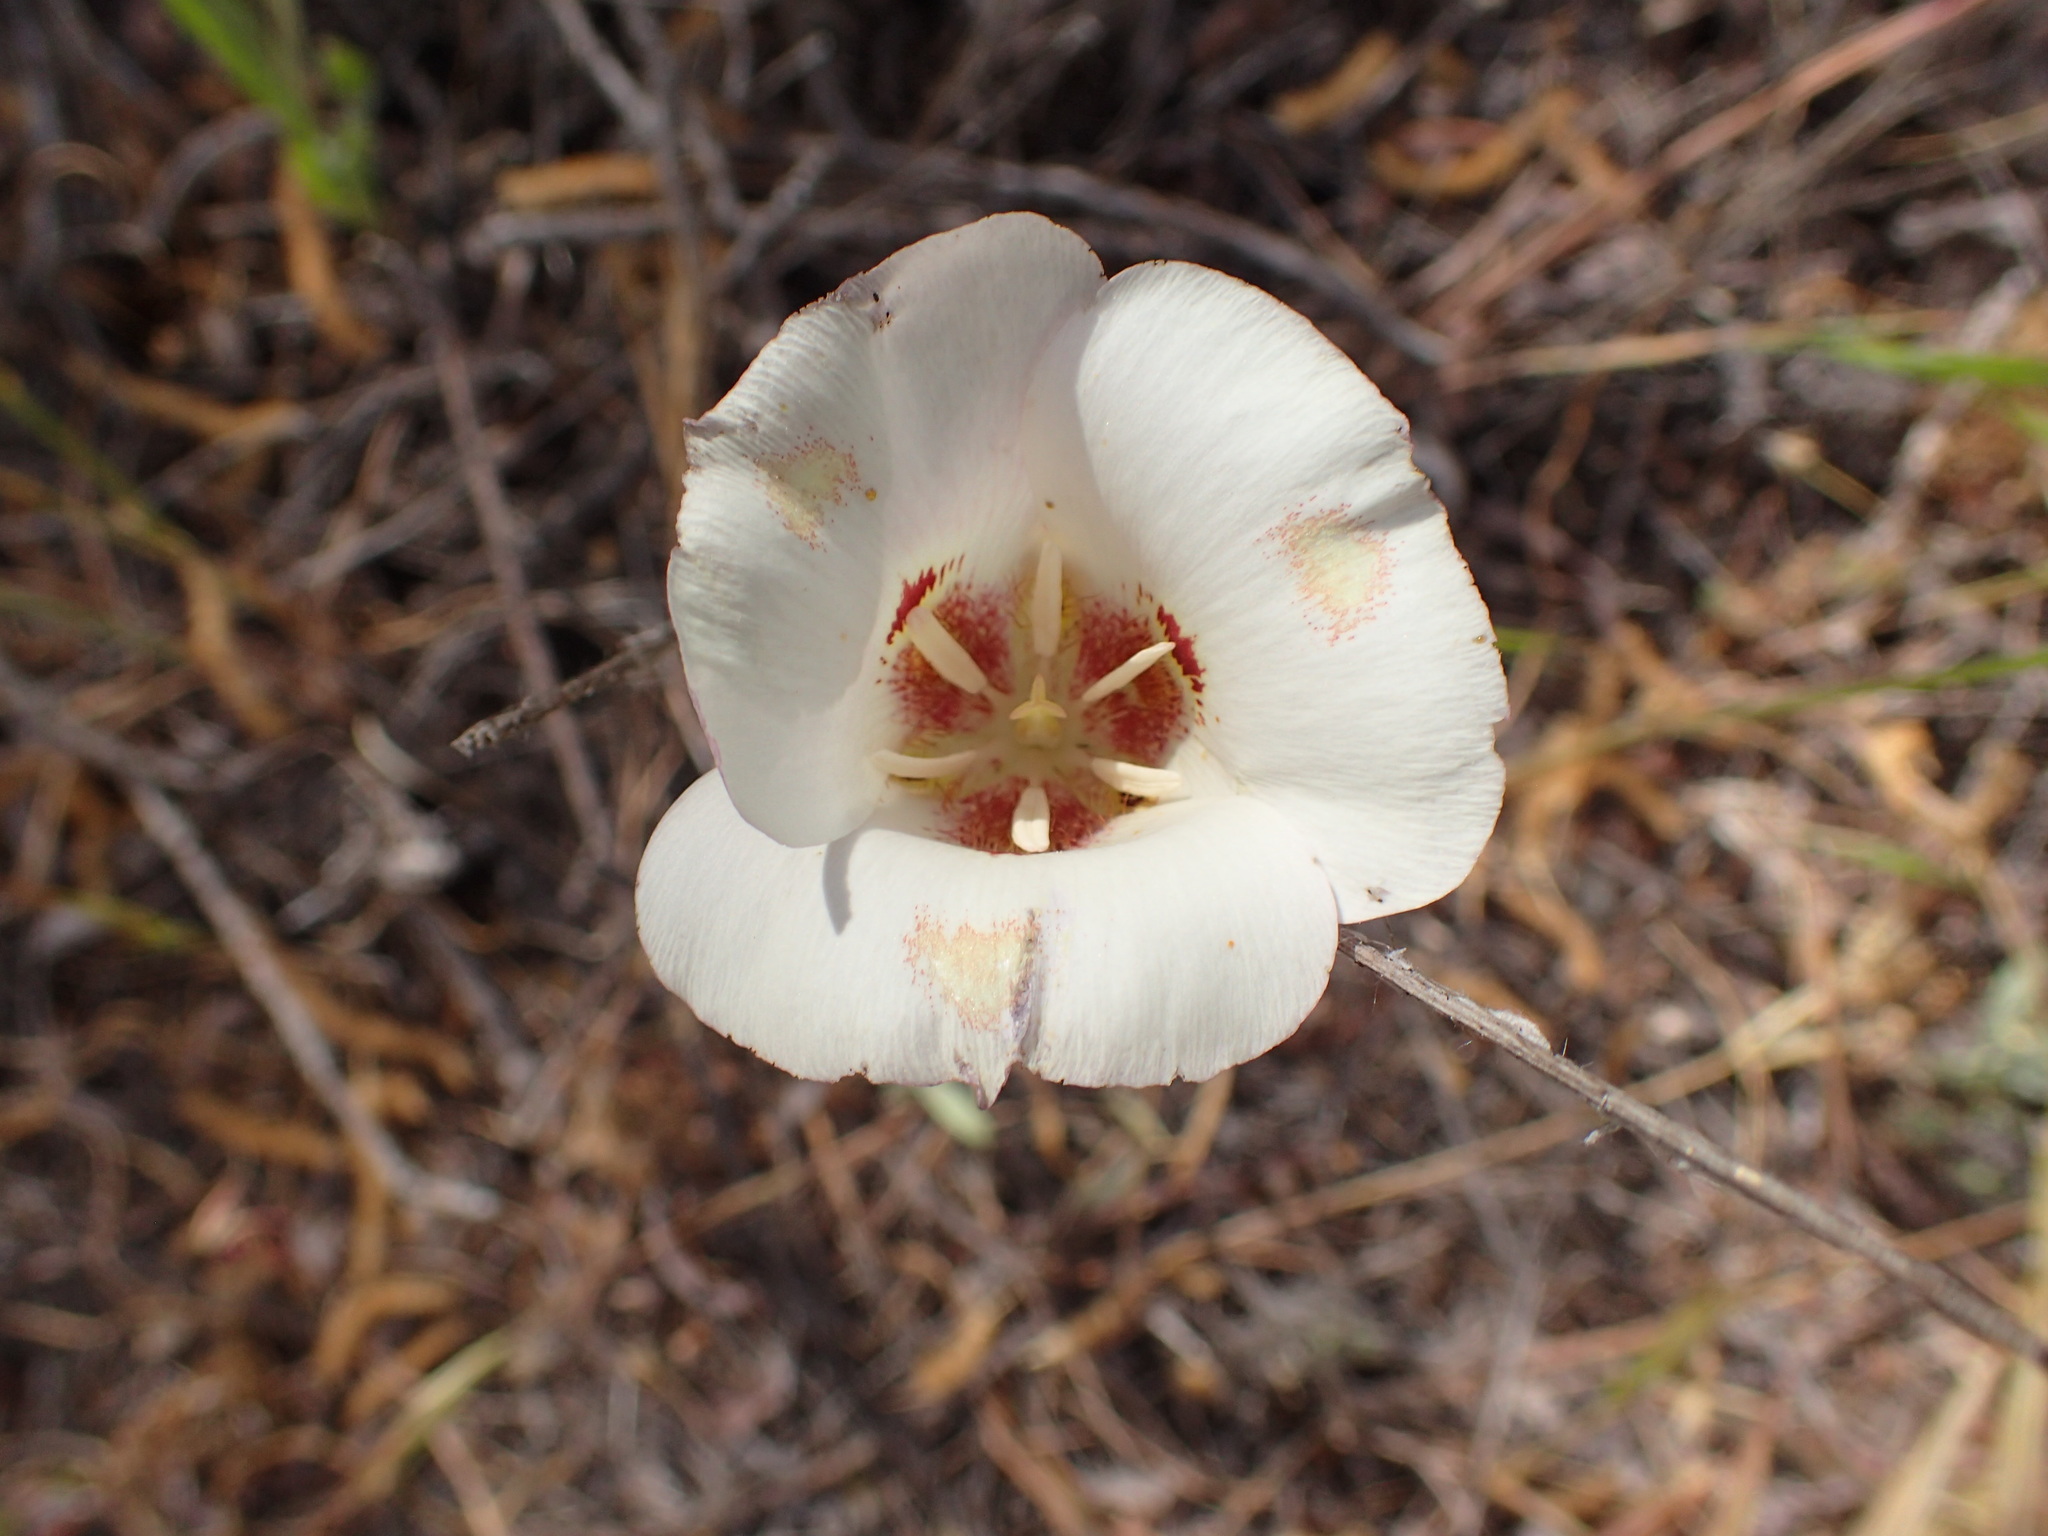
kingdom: Plantae
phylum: Tracheophyta
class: Liliopsida
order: Liliales
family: Liliaceae
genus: Calochortus
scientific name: Calochortus venustus
